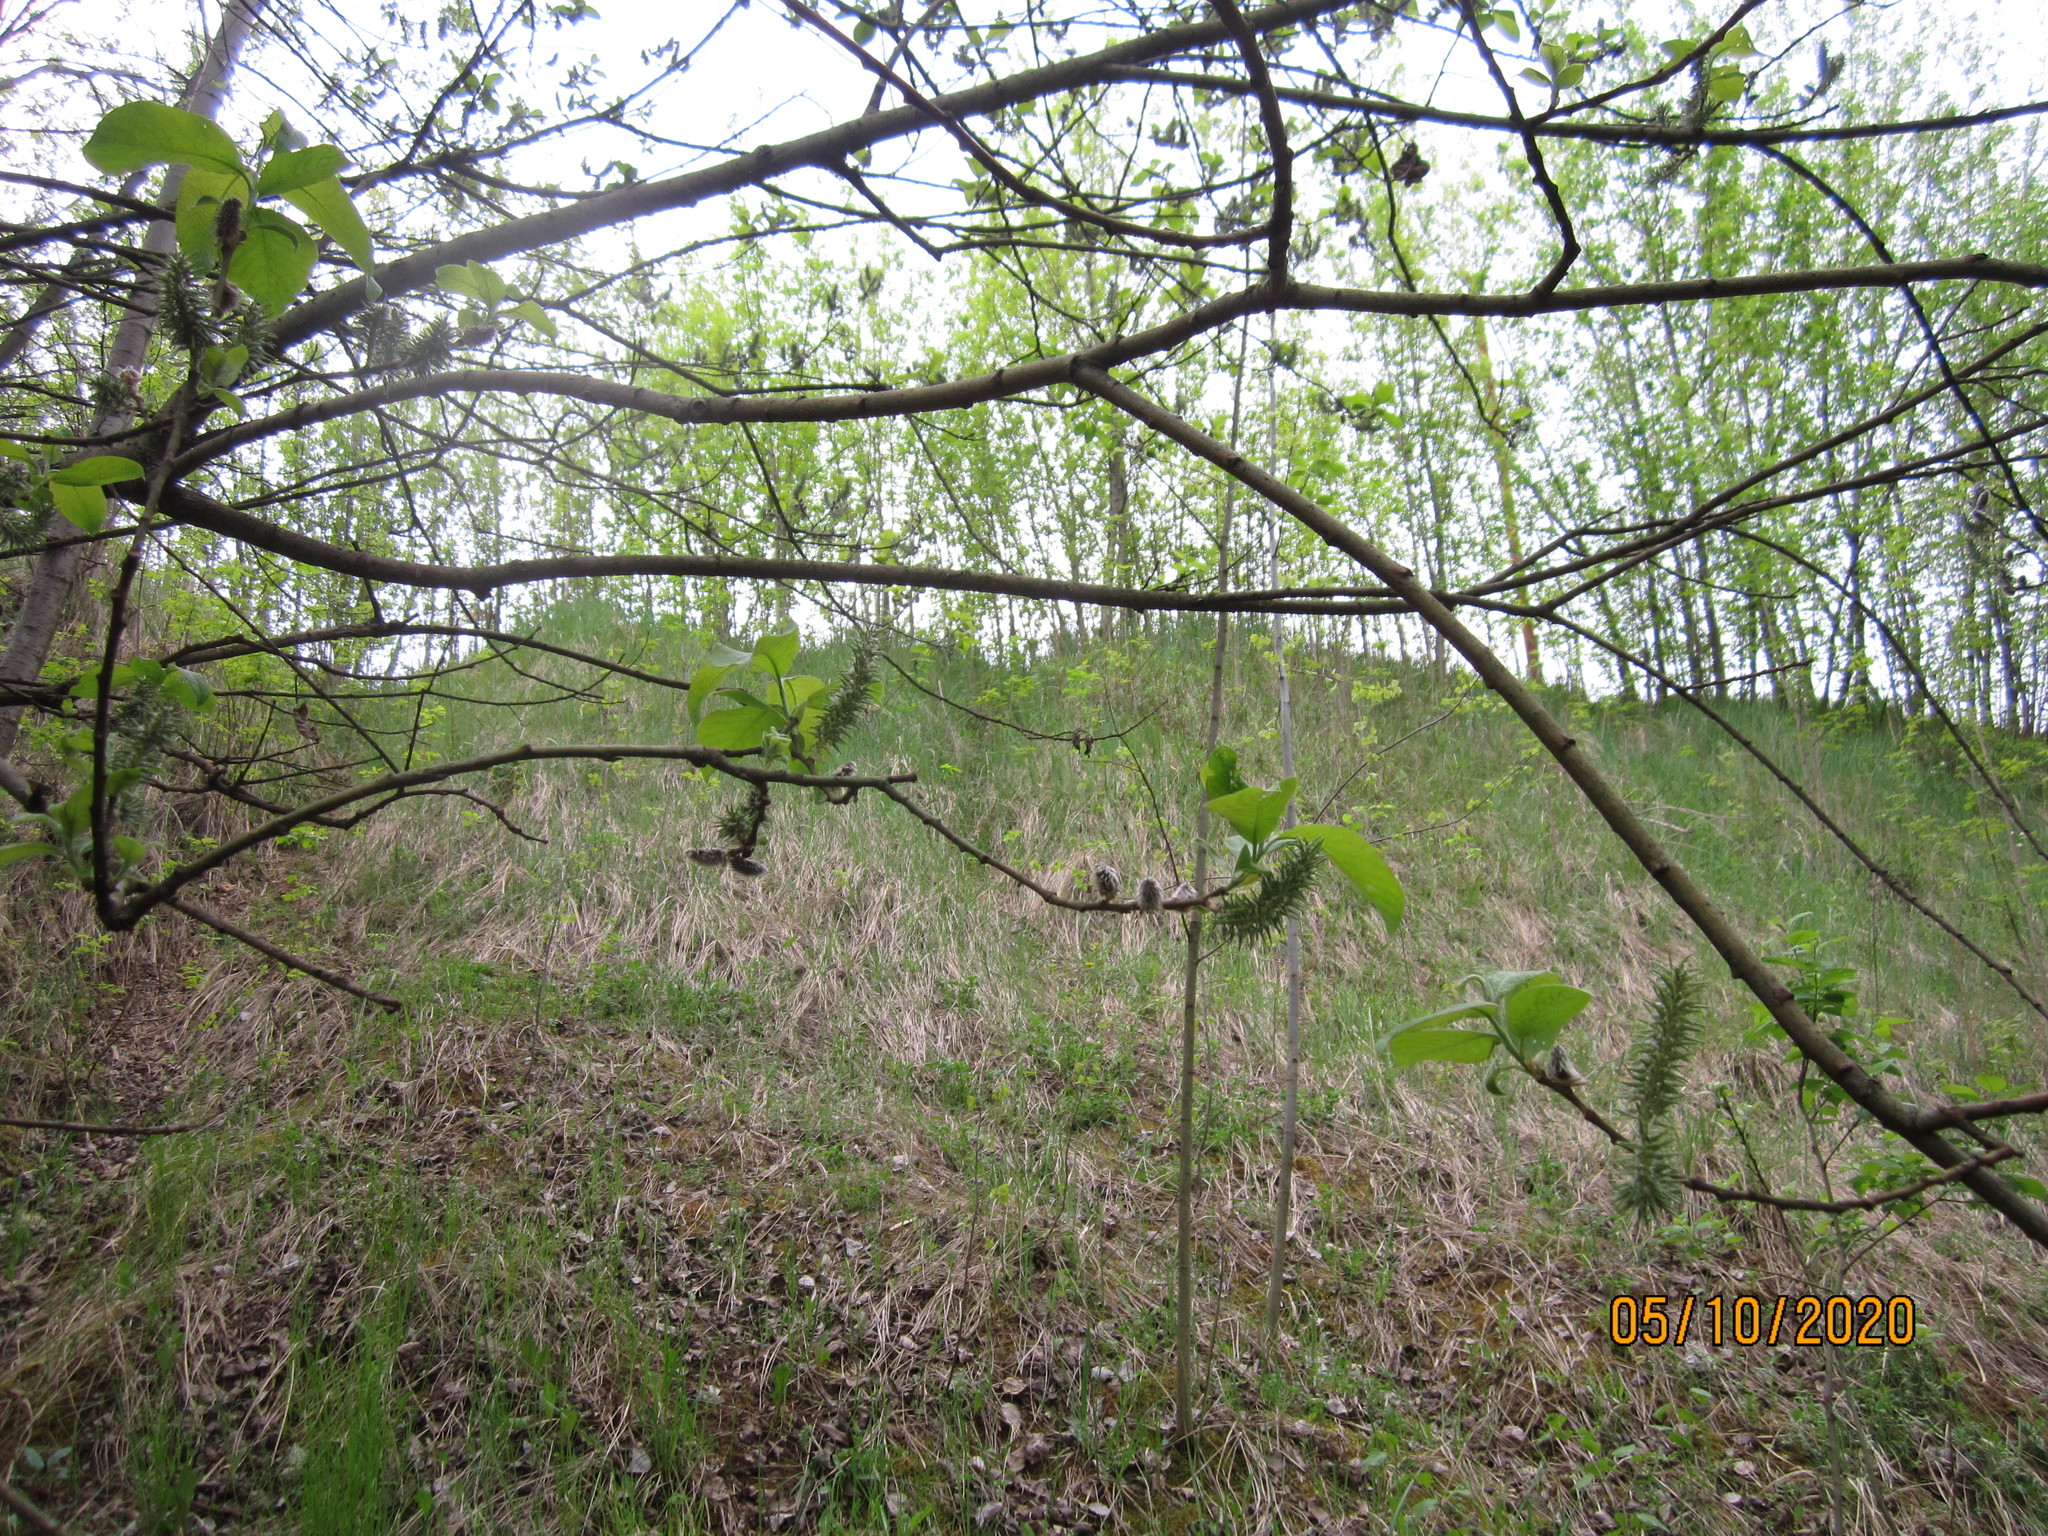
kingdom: Plantae
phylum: Tracheophyta
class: Magnoliopsida
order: Malpighiales
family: Salicaceae
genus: Salix
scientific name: Salix caprea
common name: Goat willow
